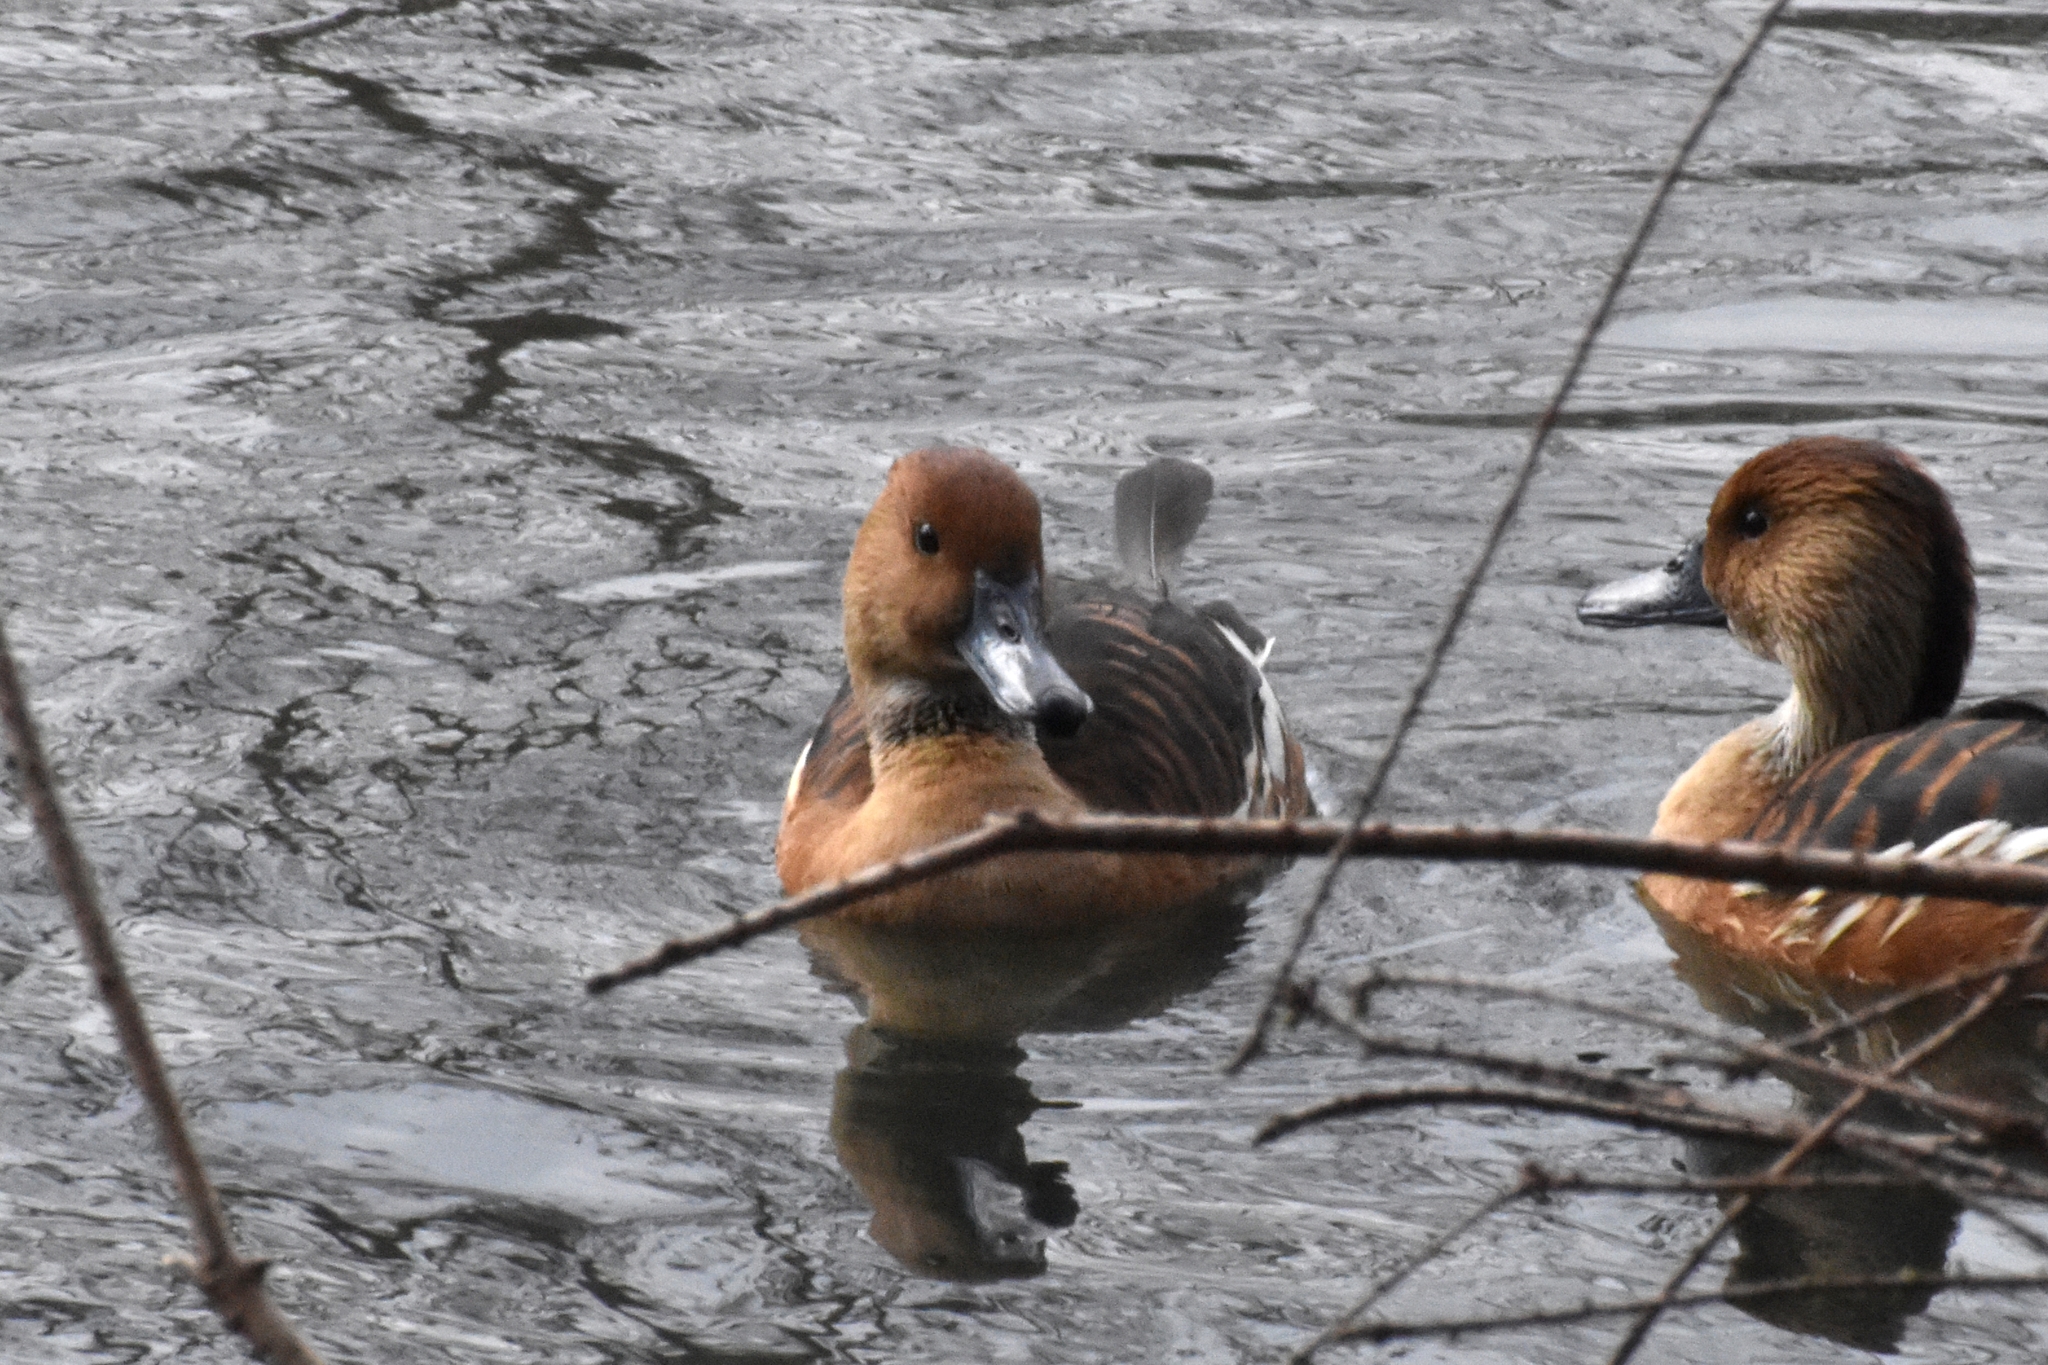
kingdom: Animalia
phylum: Chordata
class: Aves
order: Anseriformes
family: Anatidae
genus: Dendrocygna
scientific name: Dendrocygna bicolor
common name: Fulvous whistling duck
